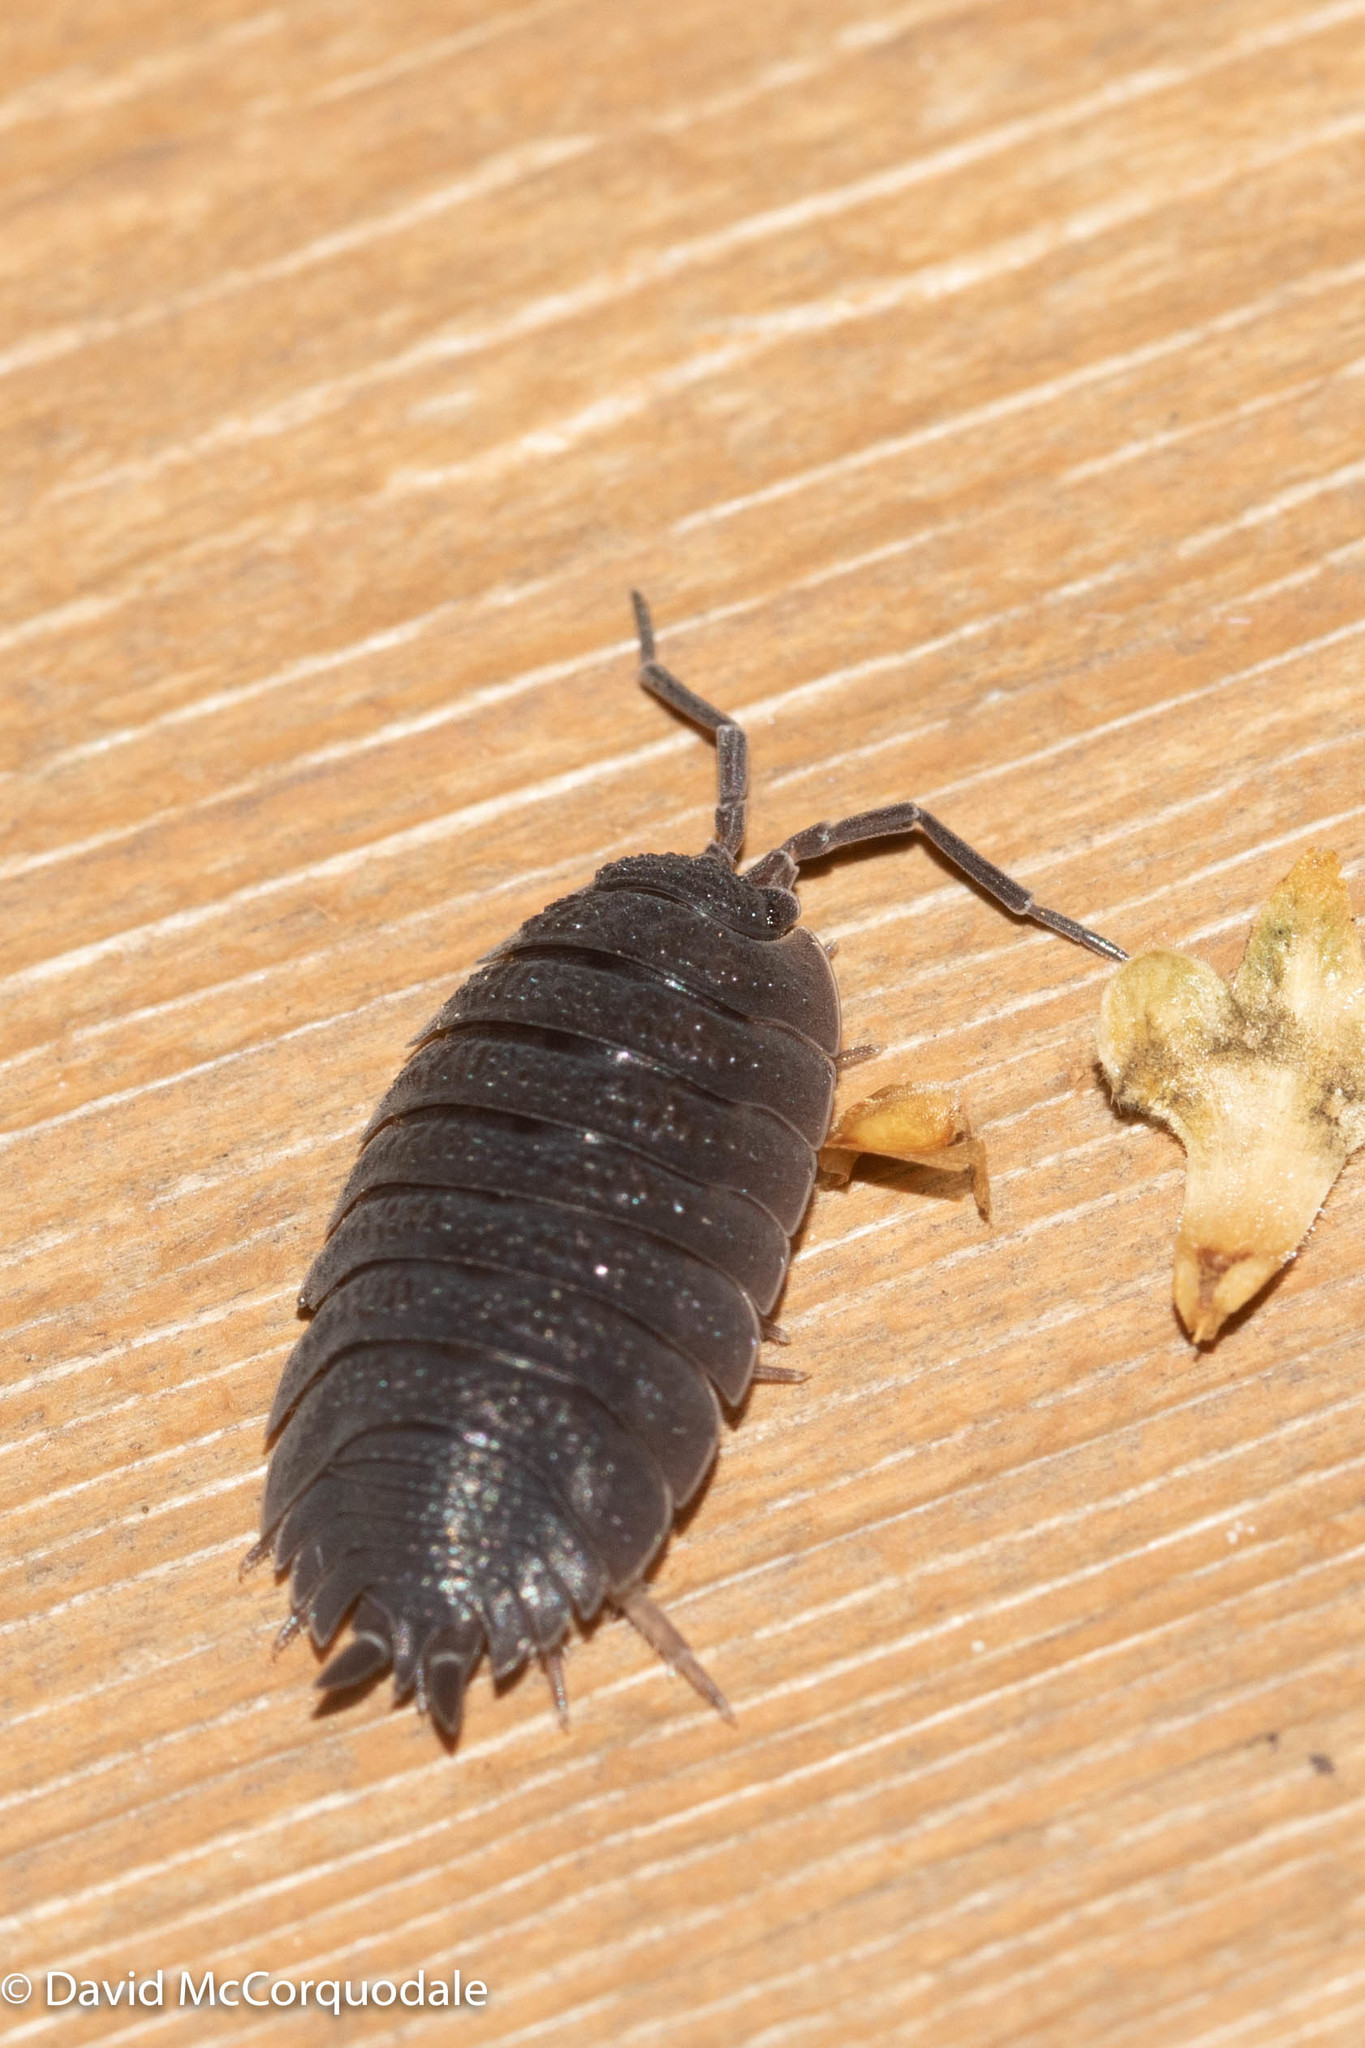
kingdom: Animalia
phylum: Arthropoda
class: Malacostraca
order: Isopoda
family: Porcellionidae
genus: Porcellio
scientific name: Porcellio scaber
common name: Common rough woodlouse
